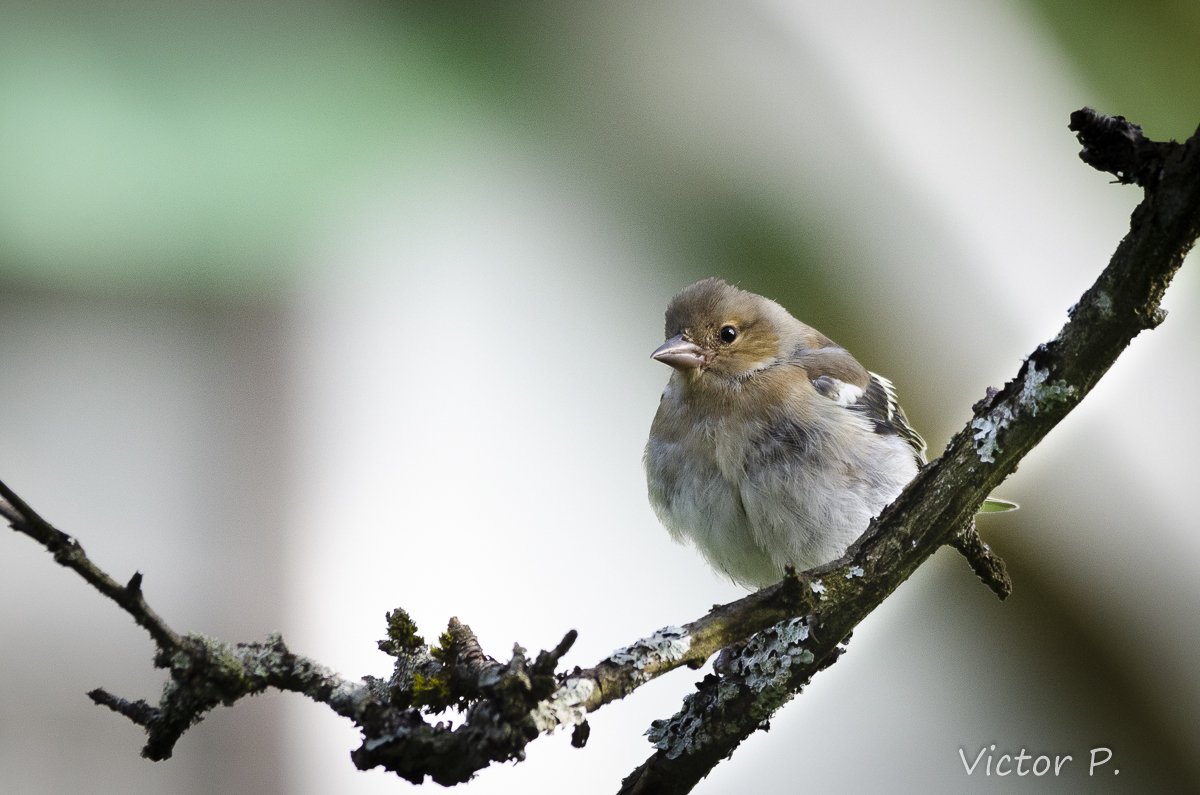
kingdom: Animalia
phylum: Chordata
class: Aves
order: Passeriformes
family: Fringillidae
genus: Fringilla
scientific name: Fringilla coelebs
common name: Common chaffinch
